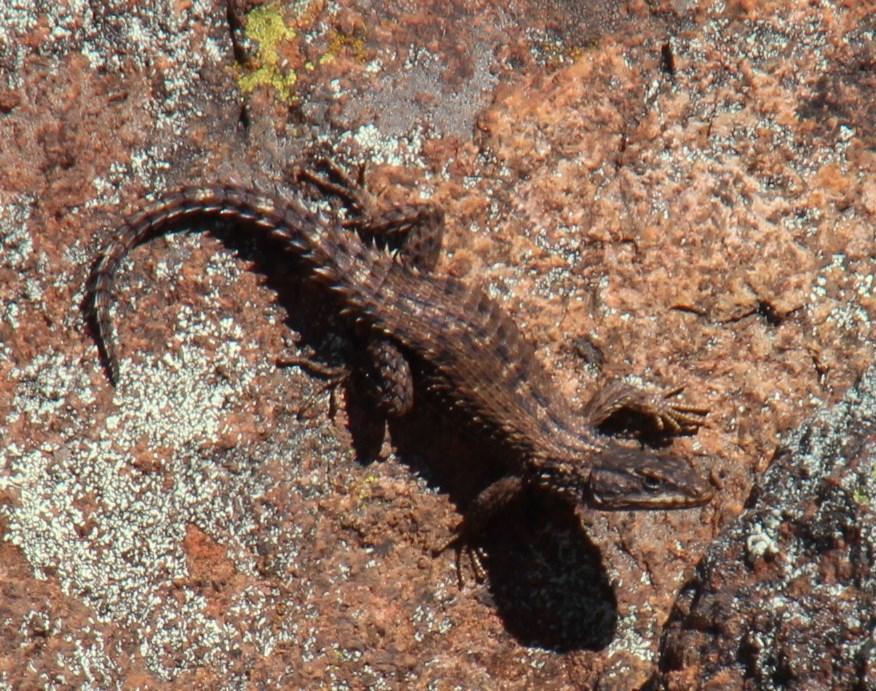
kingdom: Animalia
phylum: Chordata
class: Squamata
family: Cordylidae
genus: Cordylus
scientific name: Cordylus cordylus
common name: Cape girdled lizard
